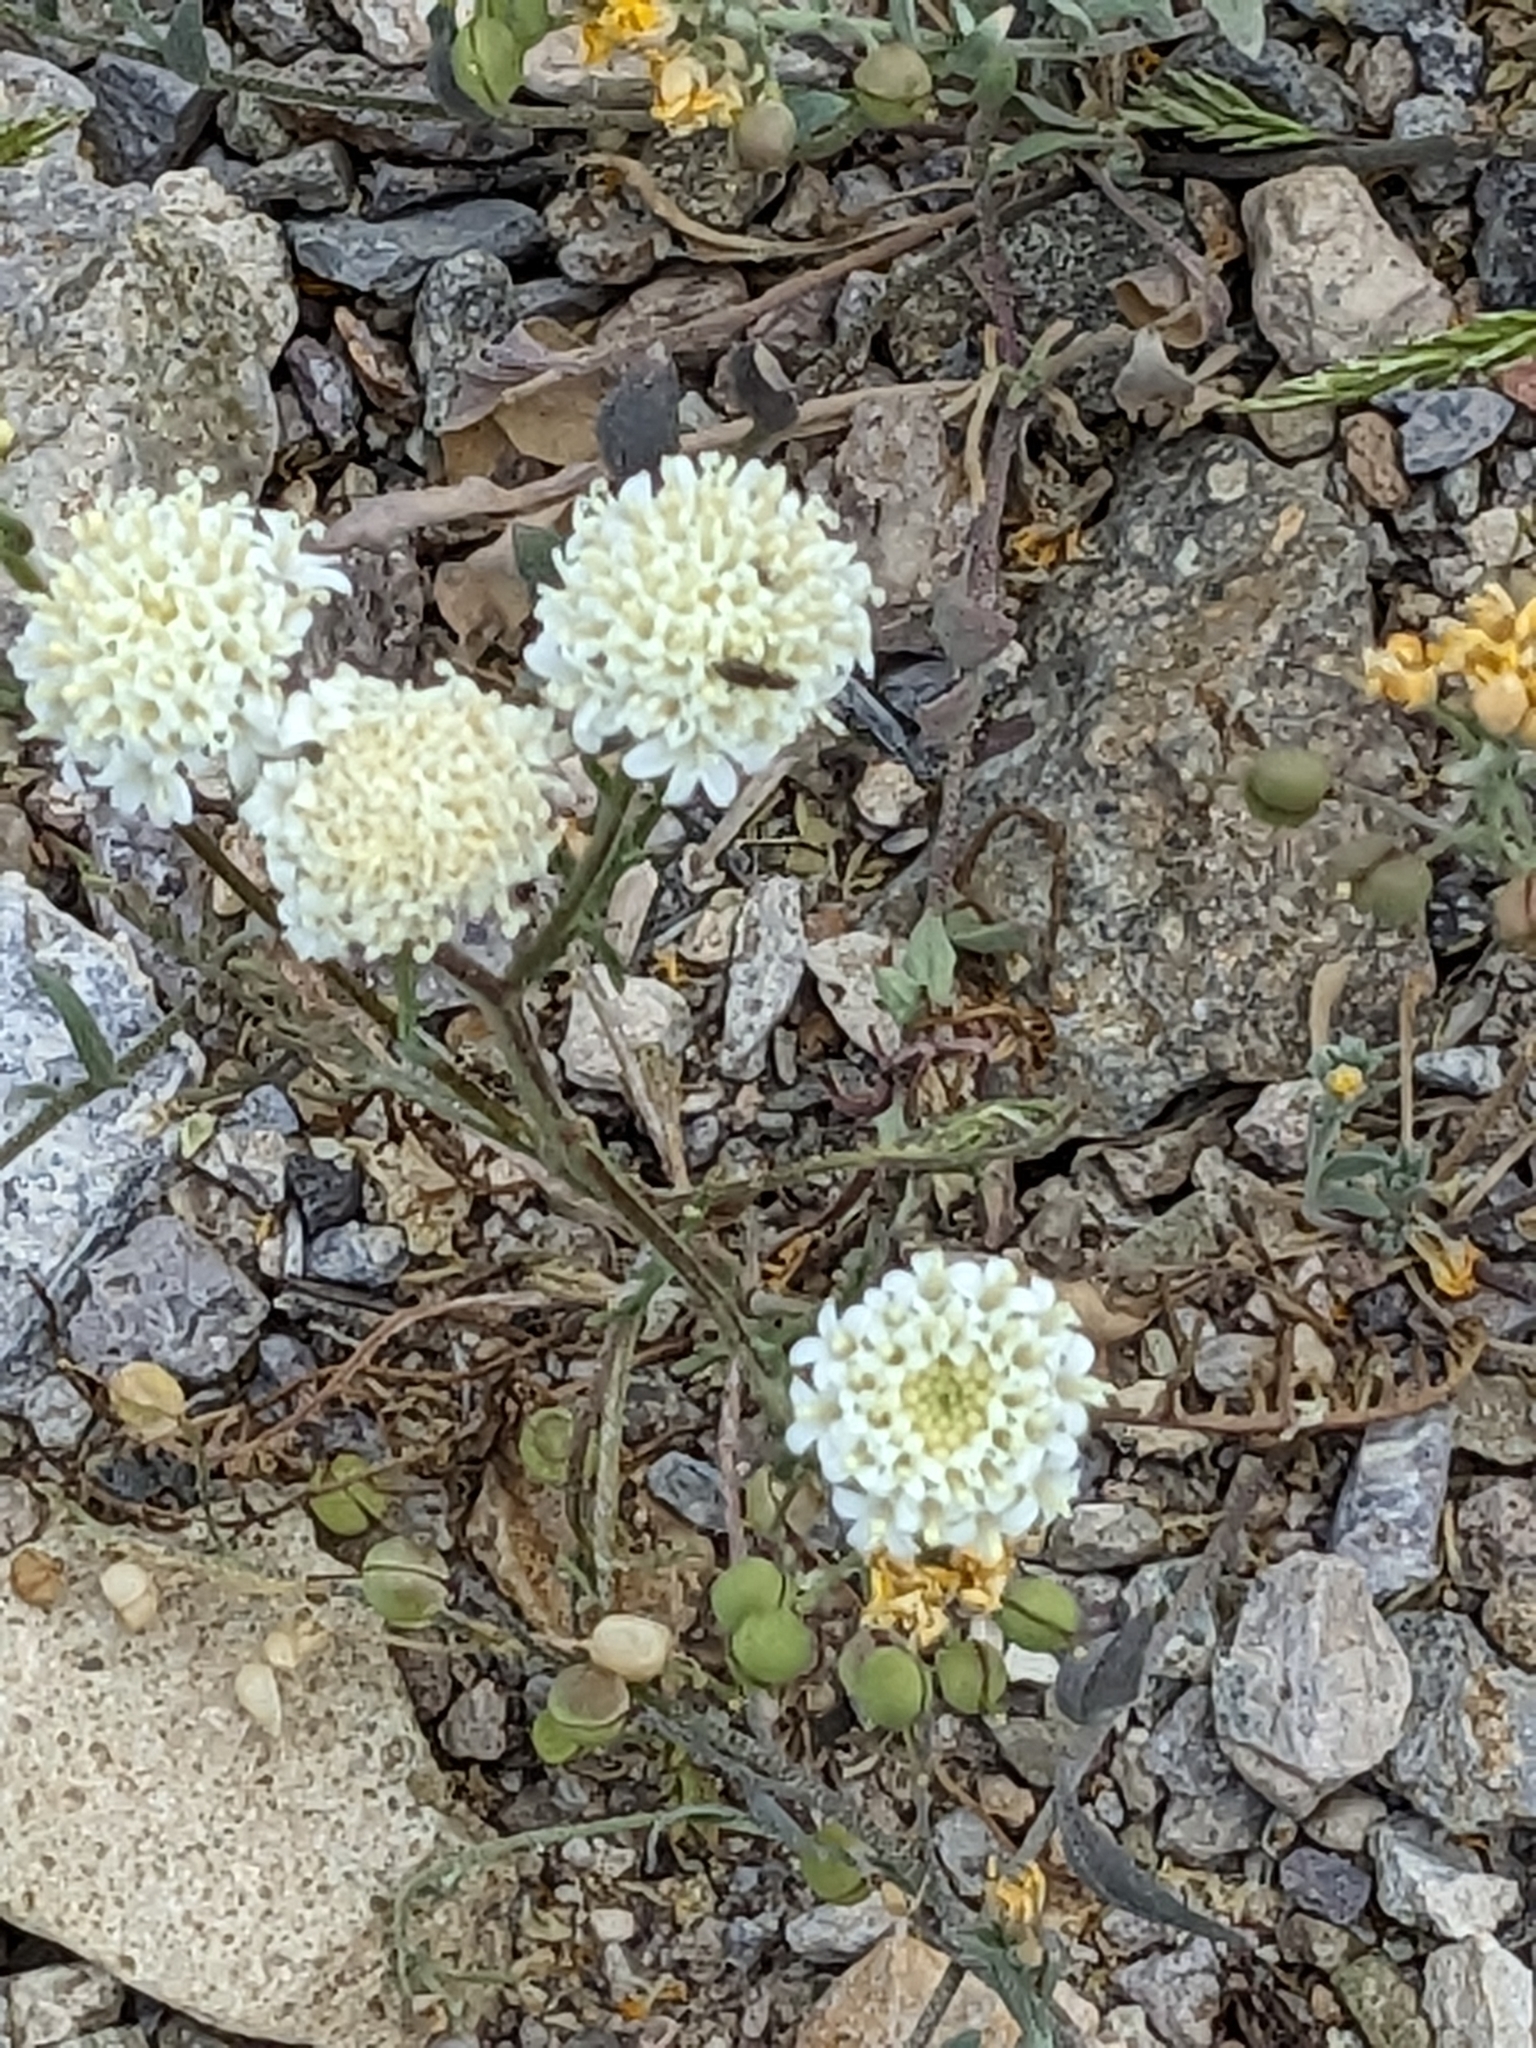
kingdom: Plantae
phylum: Tracheophyta
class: Magnoliopsida
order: Asterales
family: Asteraceae
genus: Chaenactis
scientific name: Chaenactis stevioides
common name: Desert pincushion
